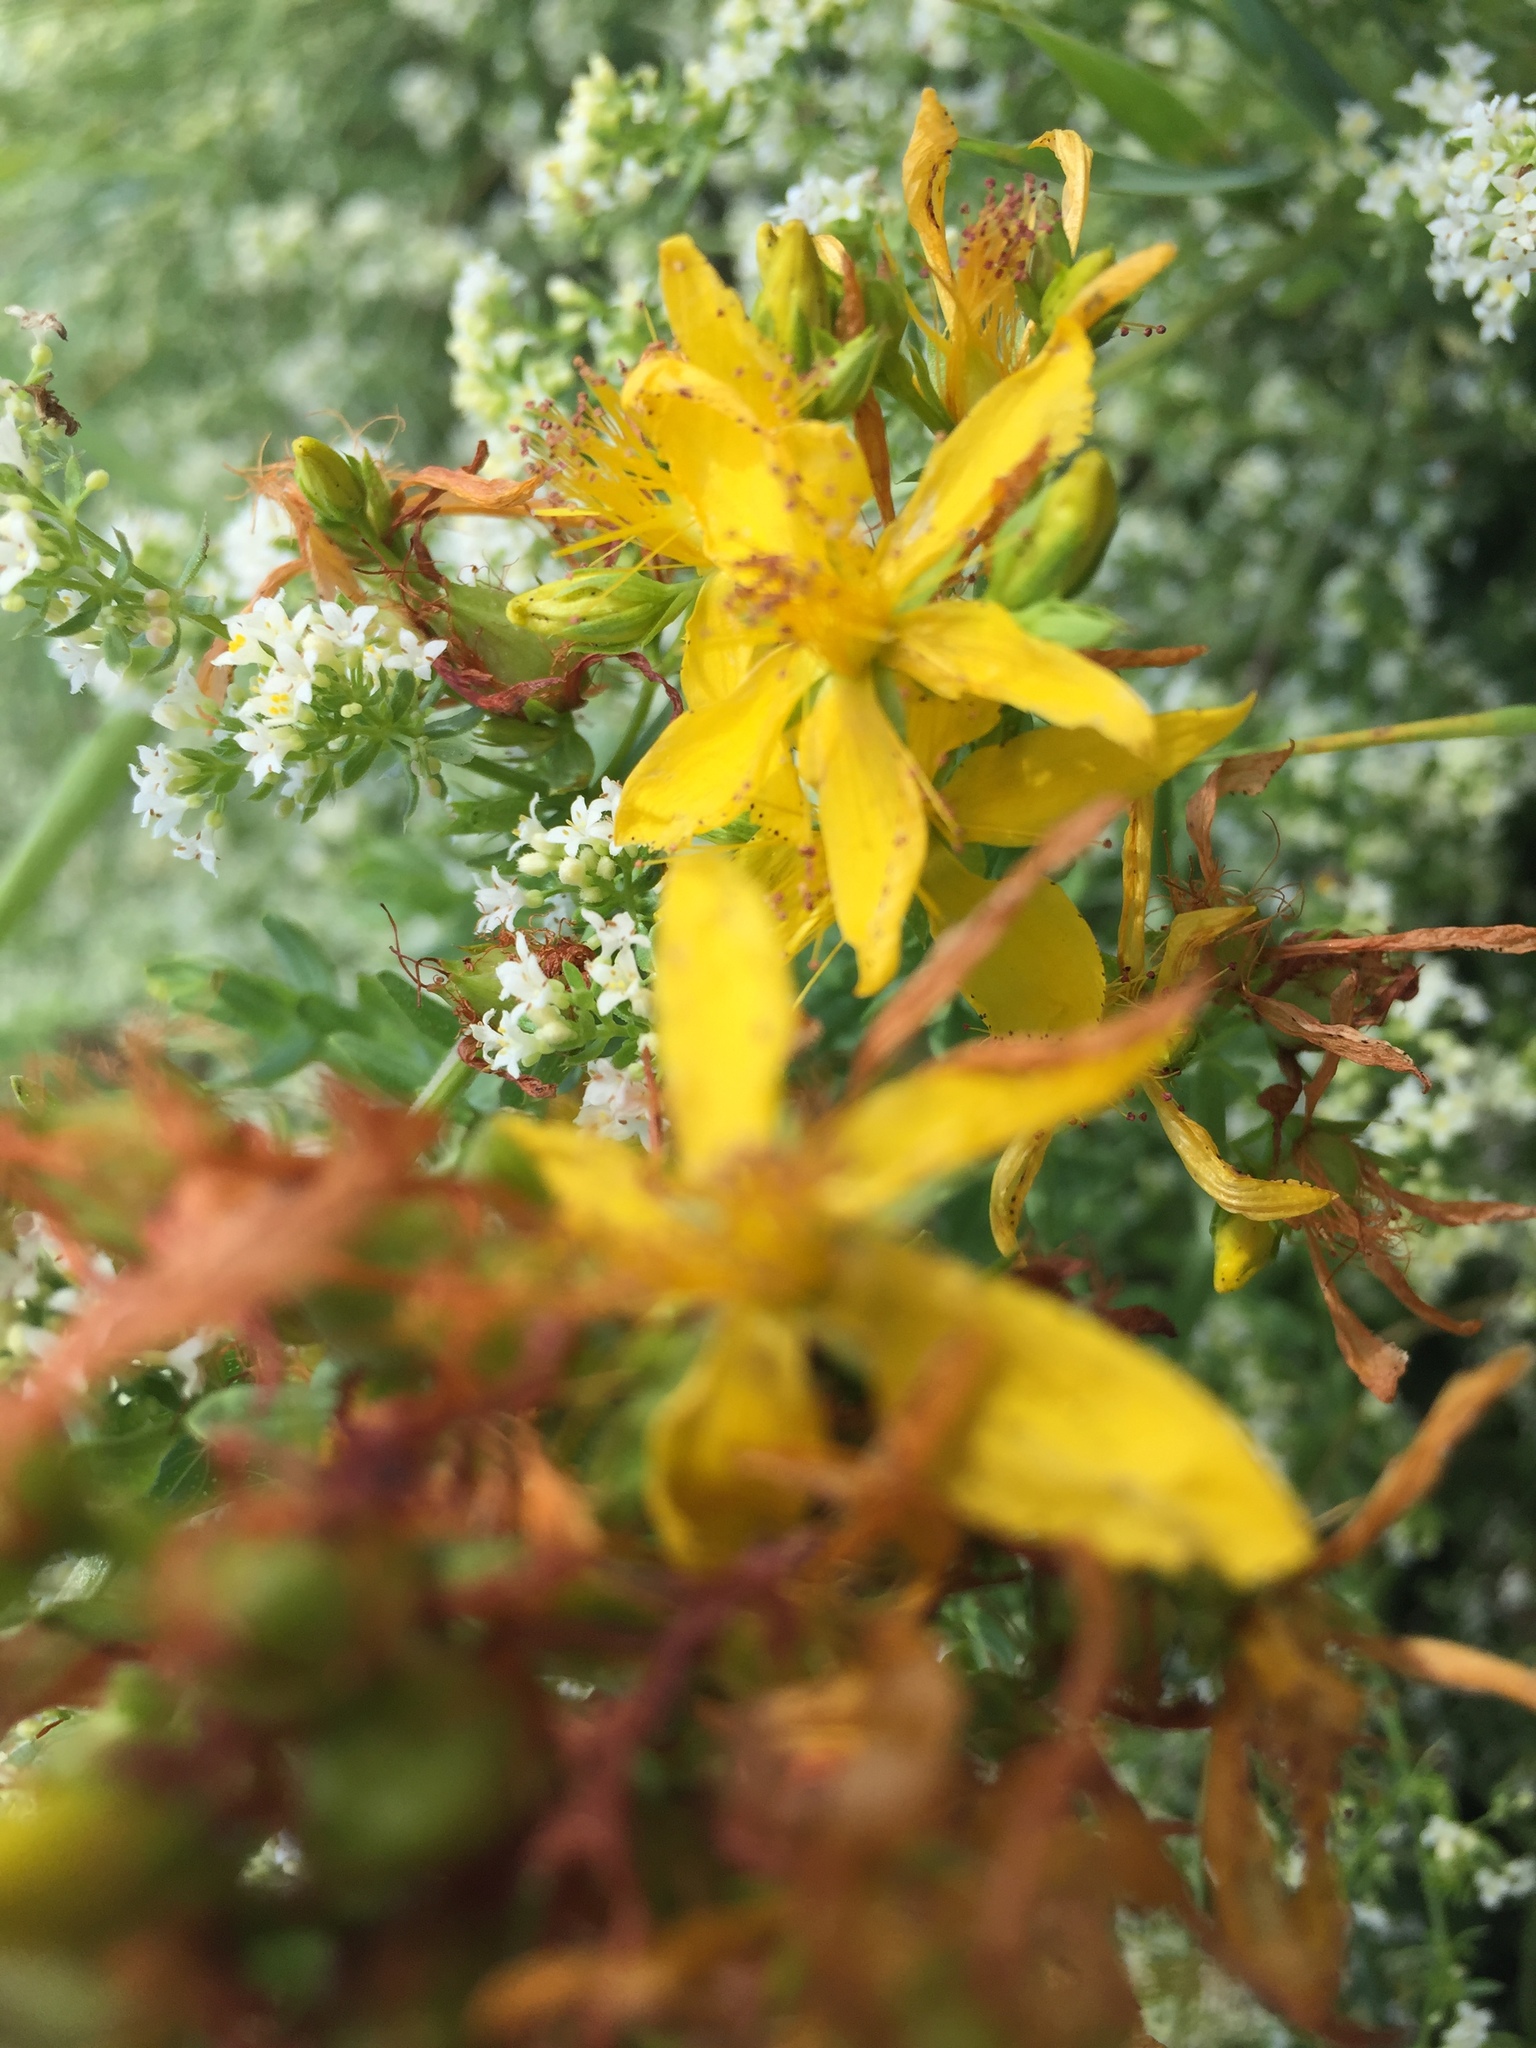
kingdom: Plantae
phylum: Tracheophyta
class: Magnoliopsida
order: Malpighiales
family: Hypericaceae
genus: Hypericum
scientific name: Hypericum perforatum
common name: Common st. johnswort
